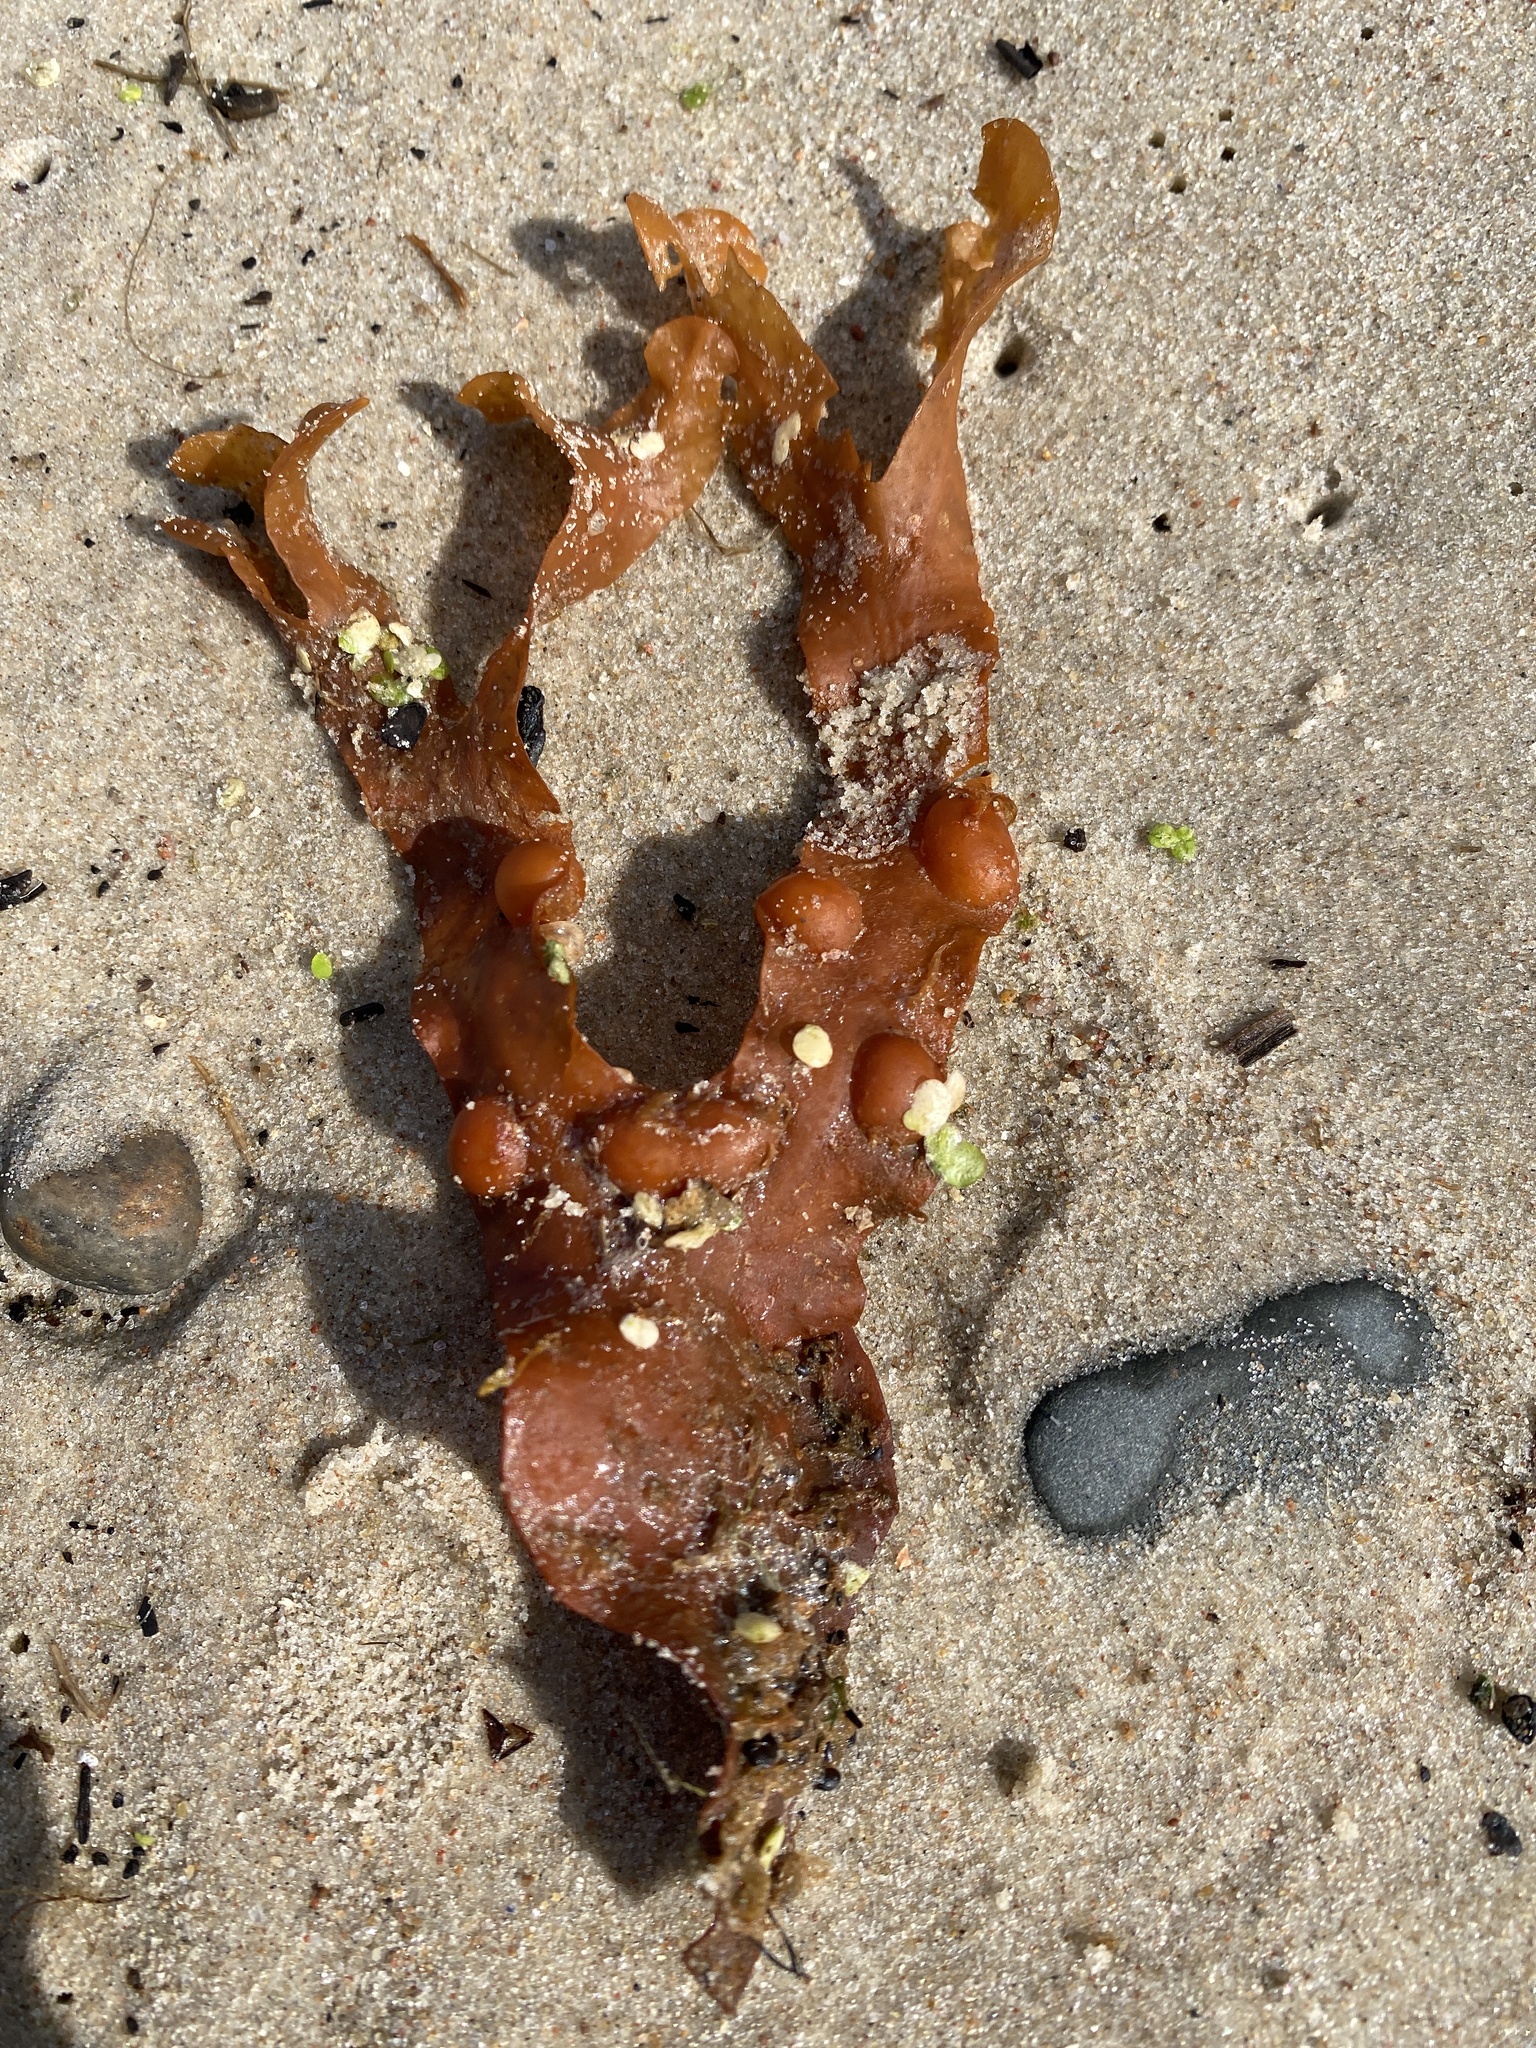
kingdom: Chromista
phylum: Ochrophyta
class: Phaeophyceae
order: Fucales
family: Fucaceae
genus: Fucus
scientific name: Fucus vesiculosus
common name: Bladder wrack
